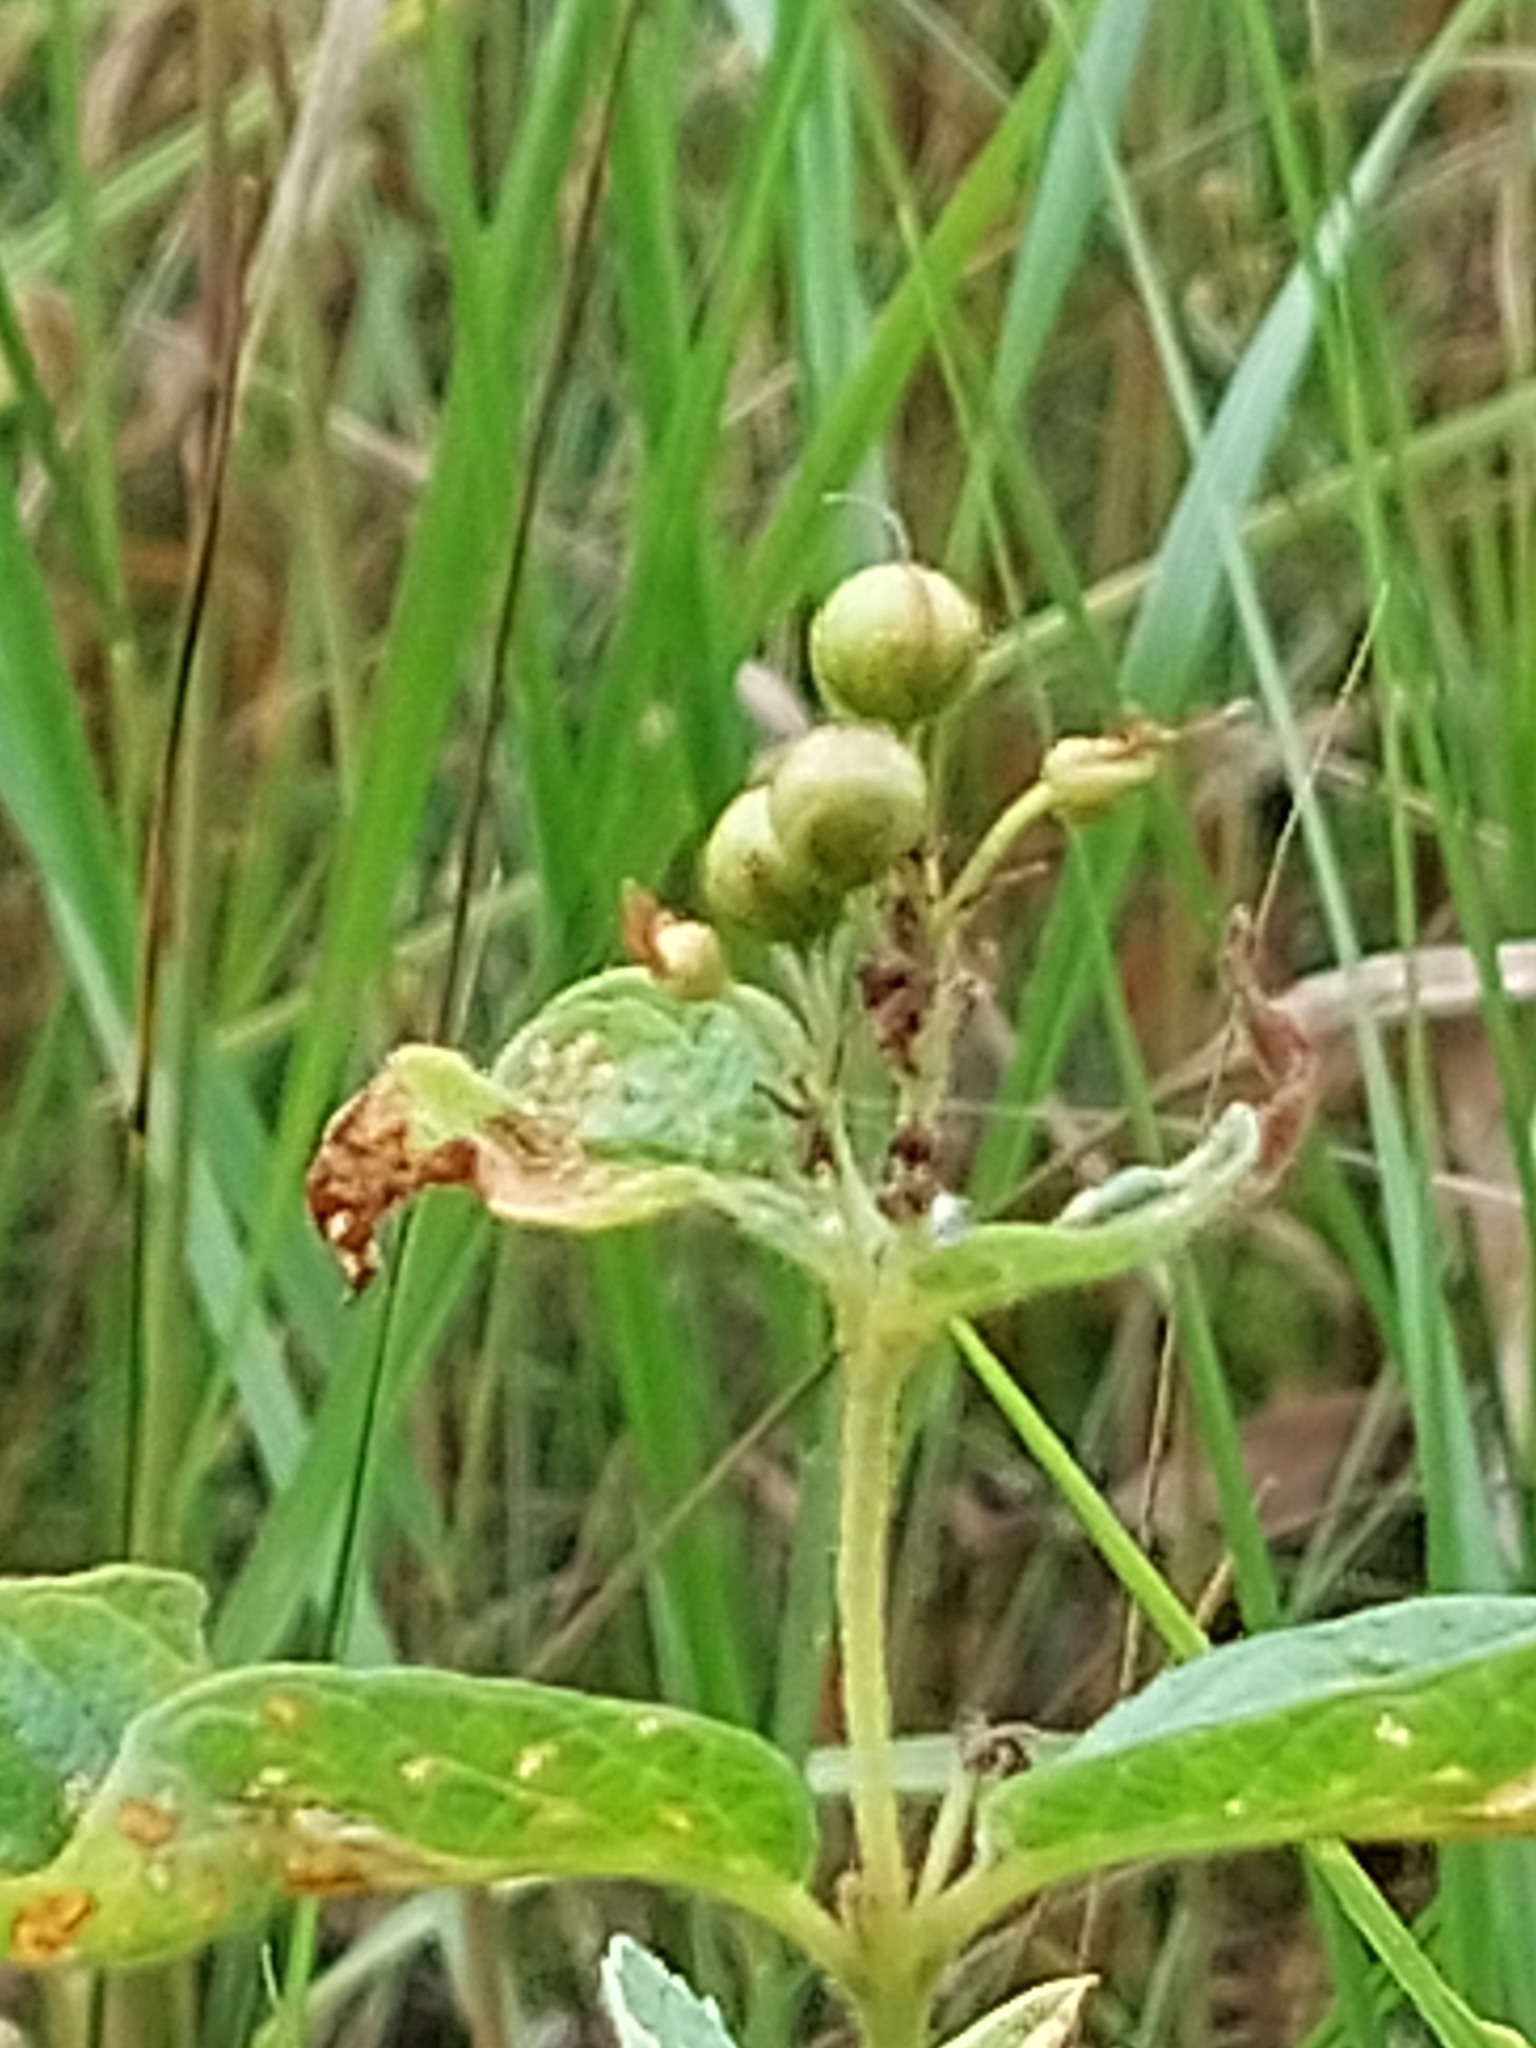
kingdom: Plantae
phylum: Tracheophyta
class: Magnoliopsida
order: Ericales
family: Primulaceae
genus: Lysimachia
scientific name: Lysimachia vulgaris
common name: Yellow loosestrife
